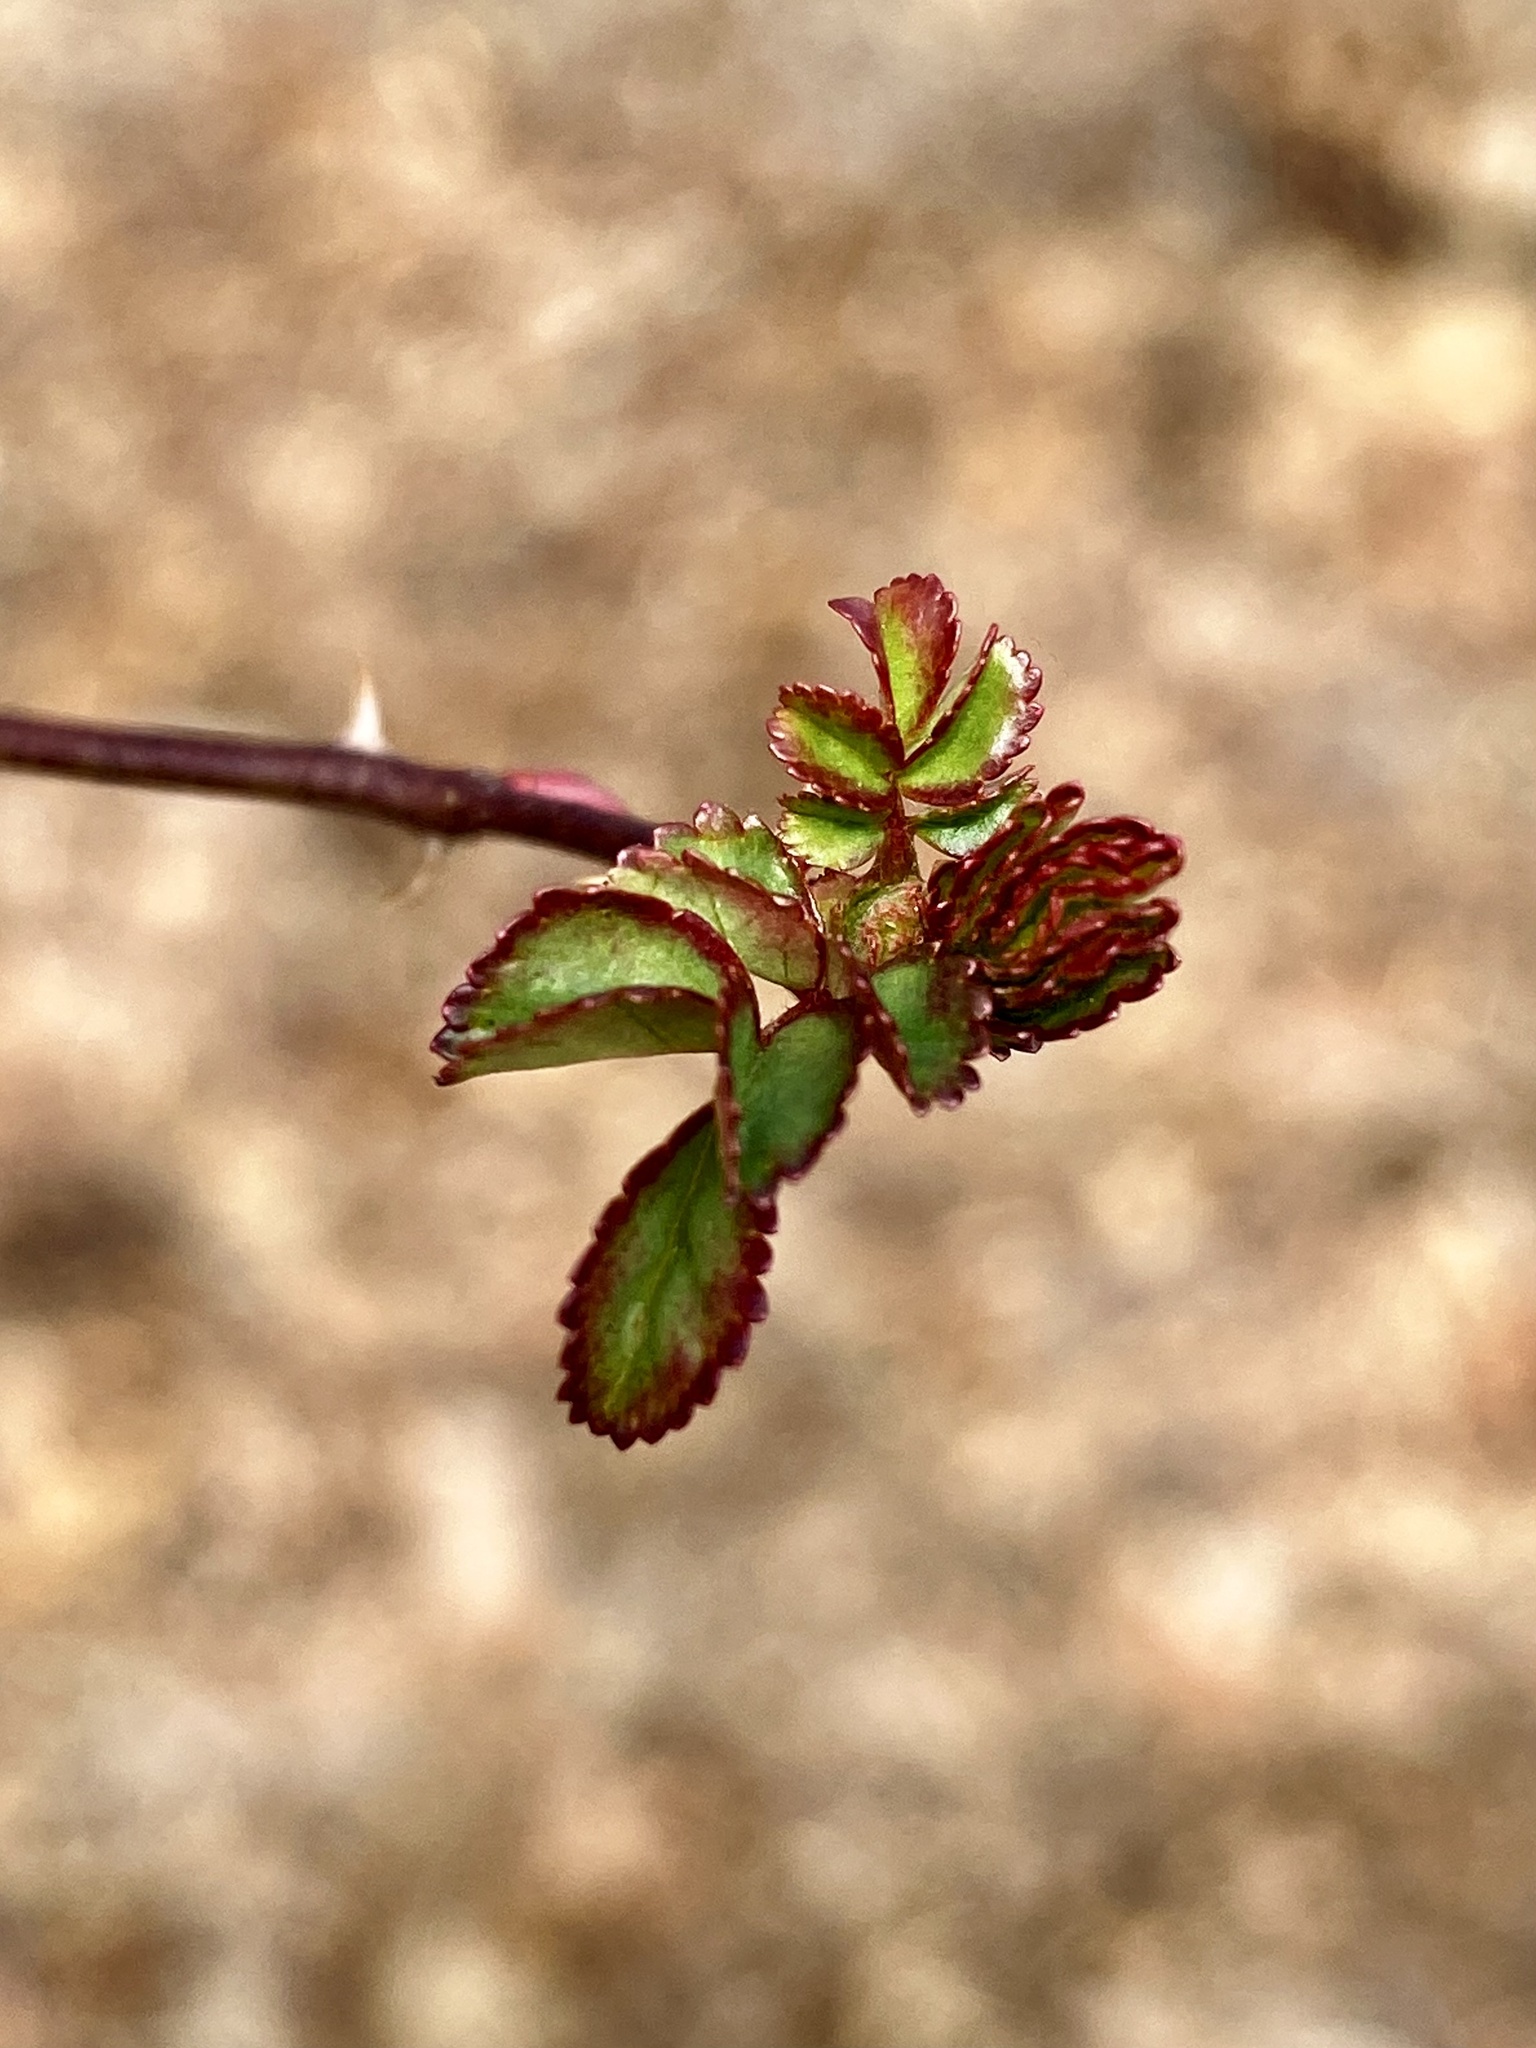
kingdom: Plantae
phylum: Tracheophyta
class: Magnoliopsida
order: Rosales
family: Rosaceae
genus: Rosa
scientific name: Rosa multiflora
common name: Multiflora rose
